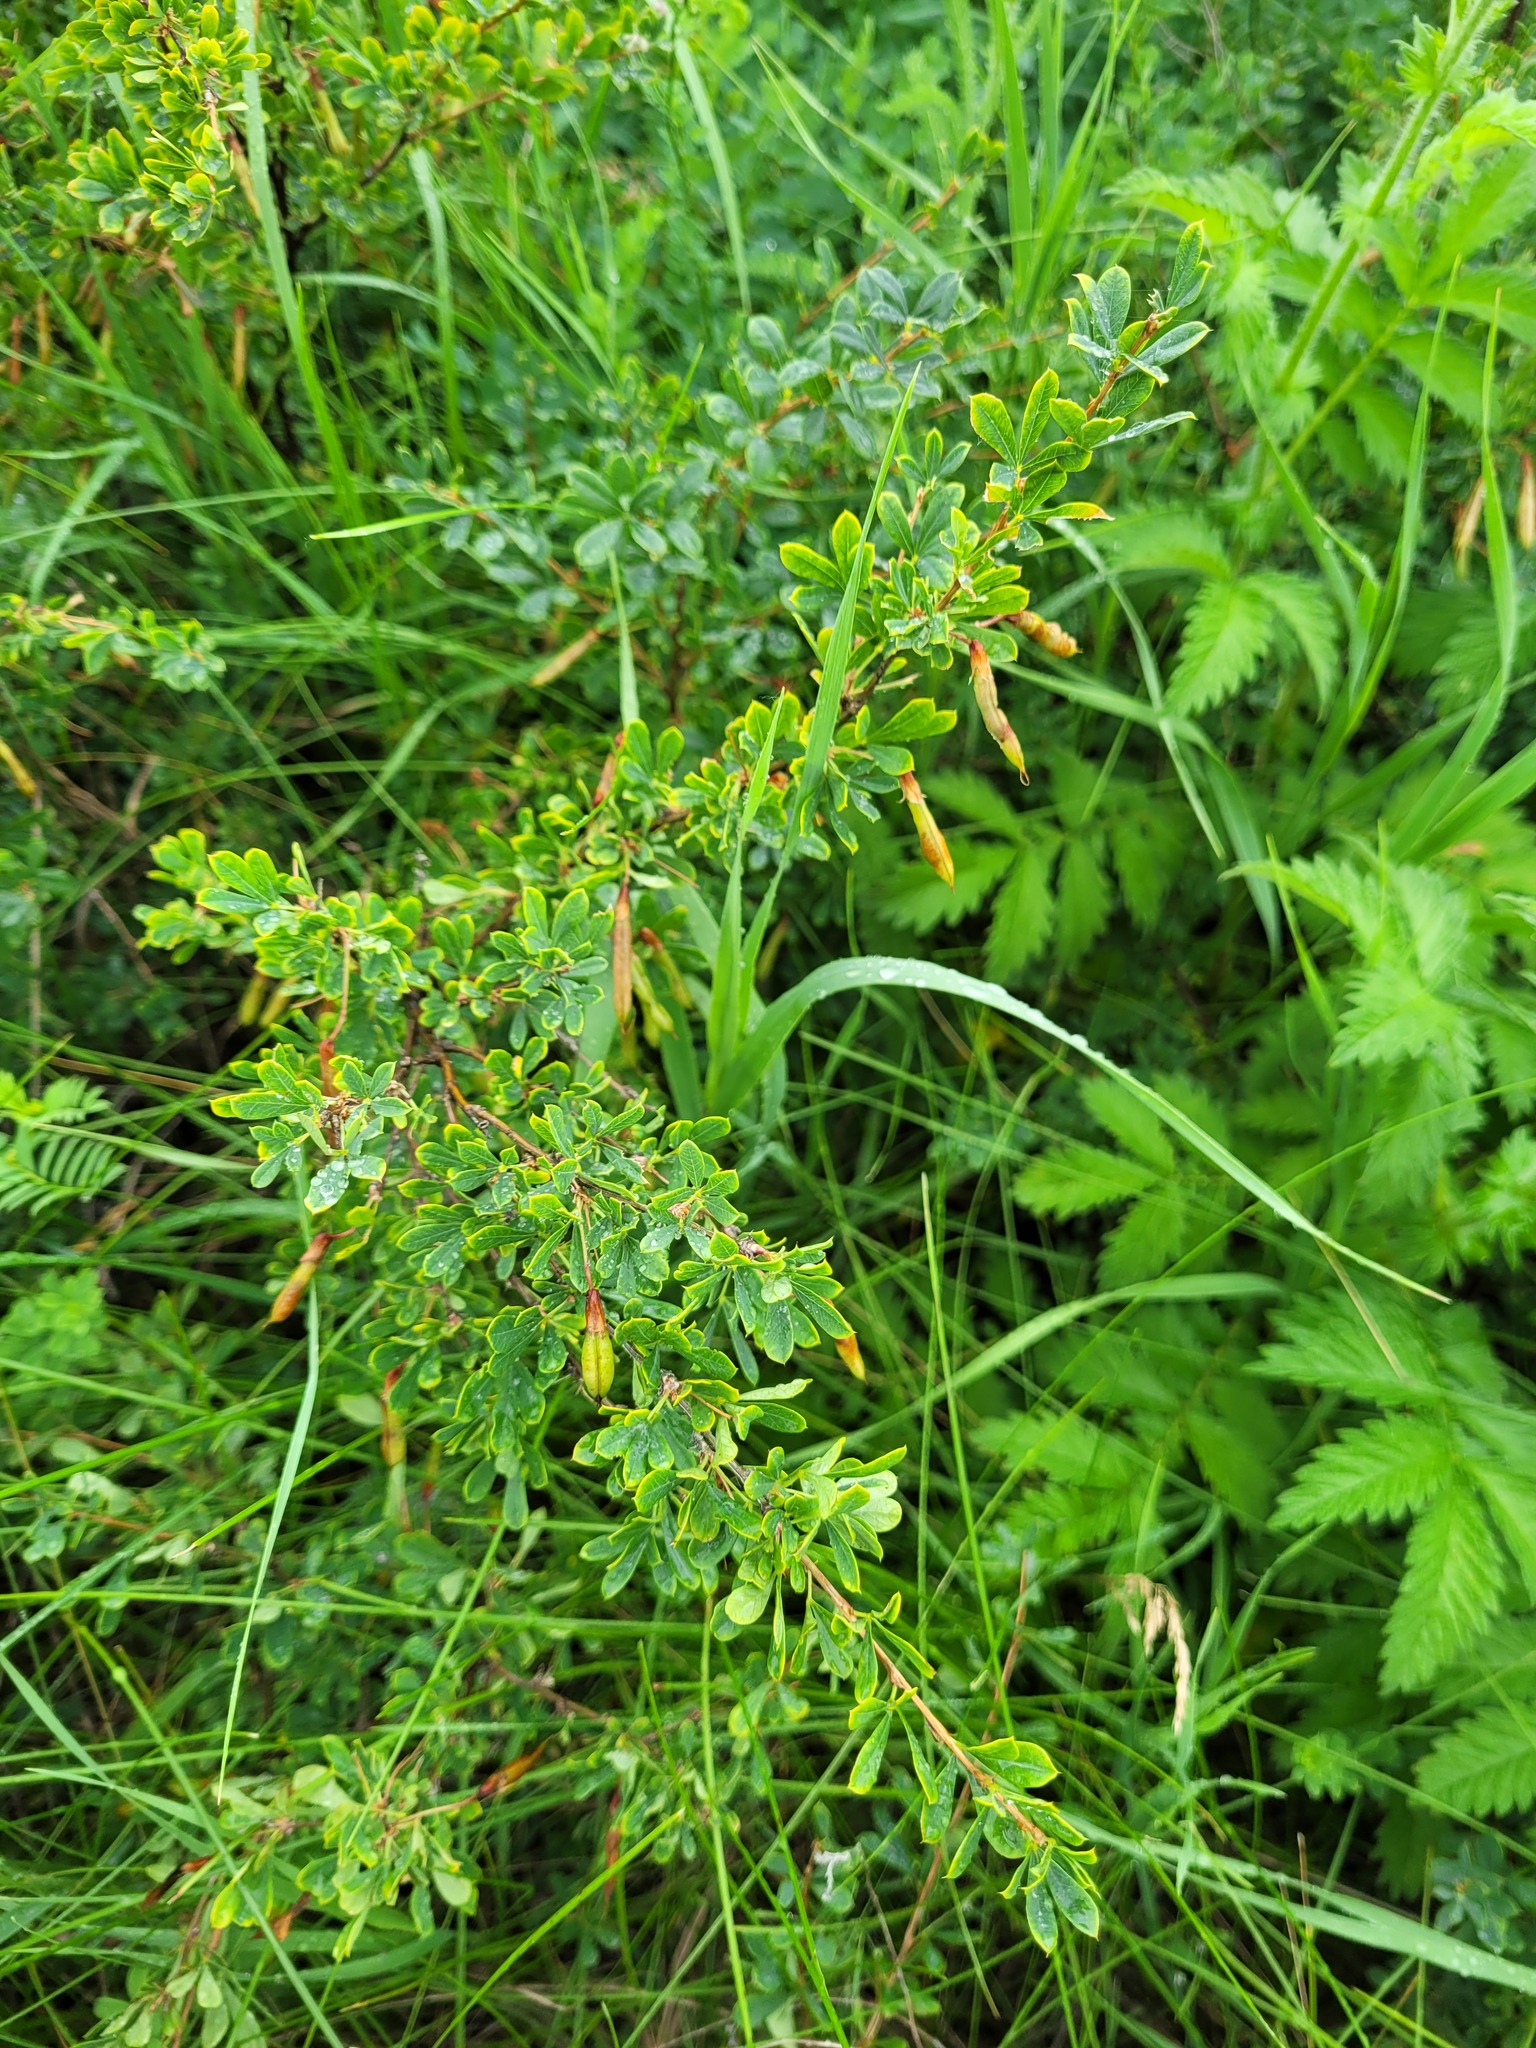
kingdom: Plantae
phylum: Tracheophyta
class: Magnoliopsida
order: Fabales
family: Fabaceae
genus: Caragana
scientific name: Caragana frutex
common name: Russian peashrub
